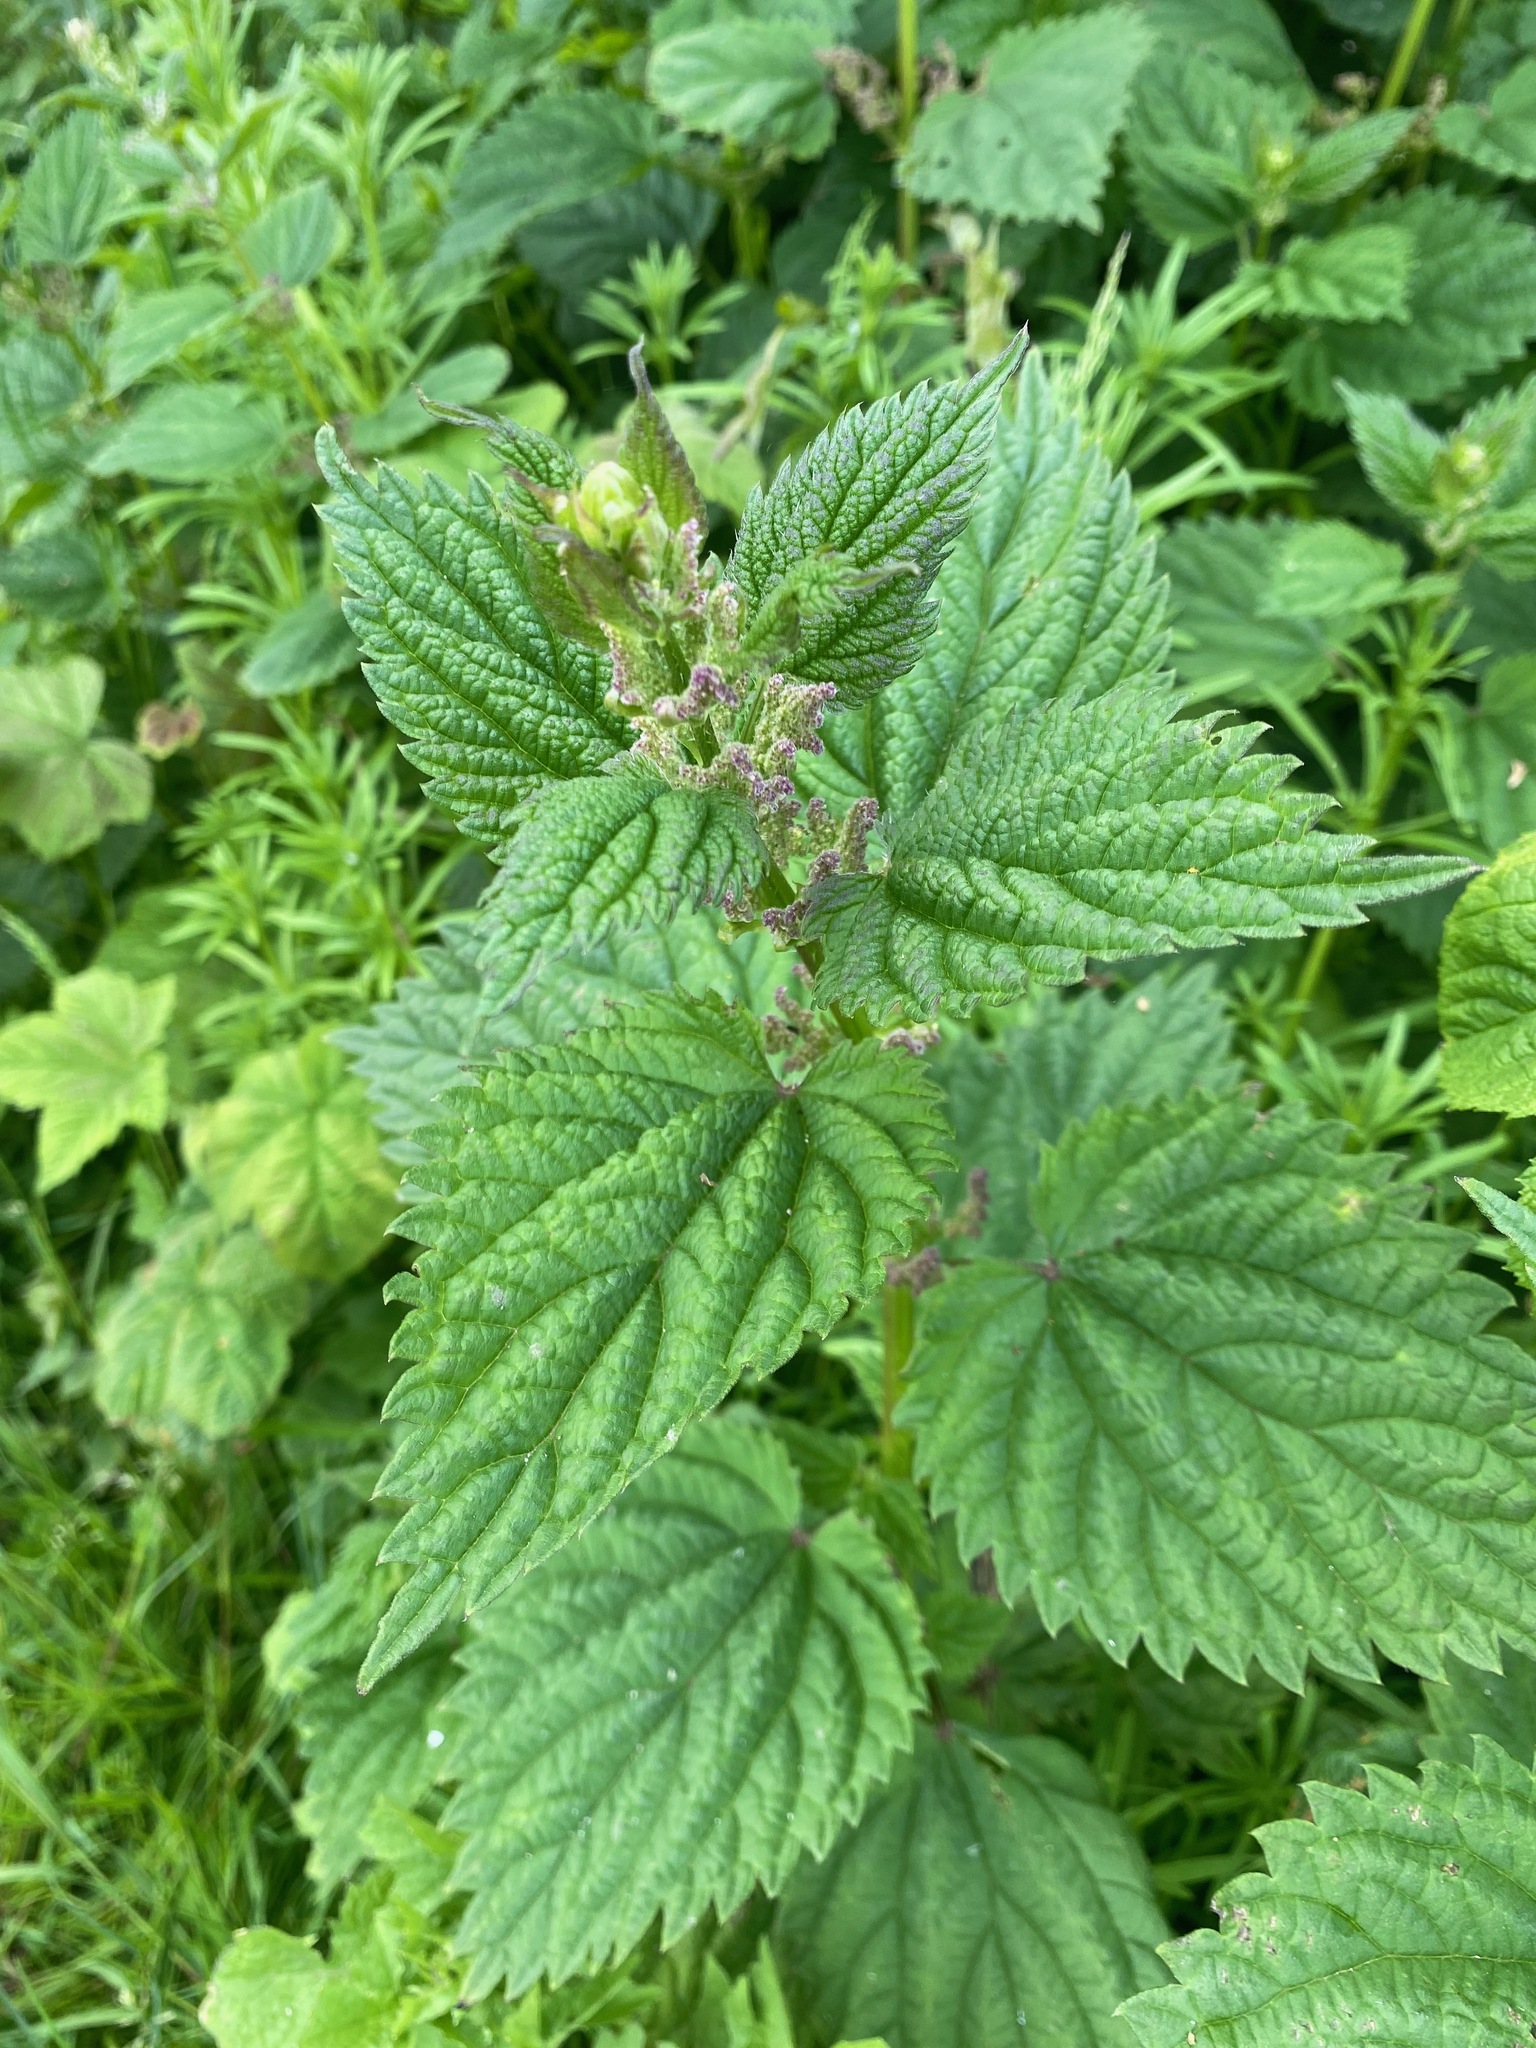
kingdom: Plantae
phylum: Tracheophyta
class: Magnoliopsida
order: Rosales
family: Urticaceae
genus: Urtica
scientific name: Urtica dioica
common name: Common nettle
